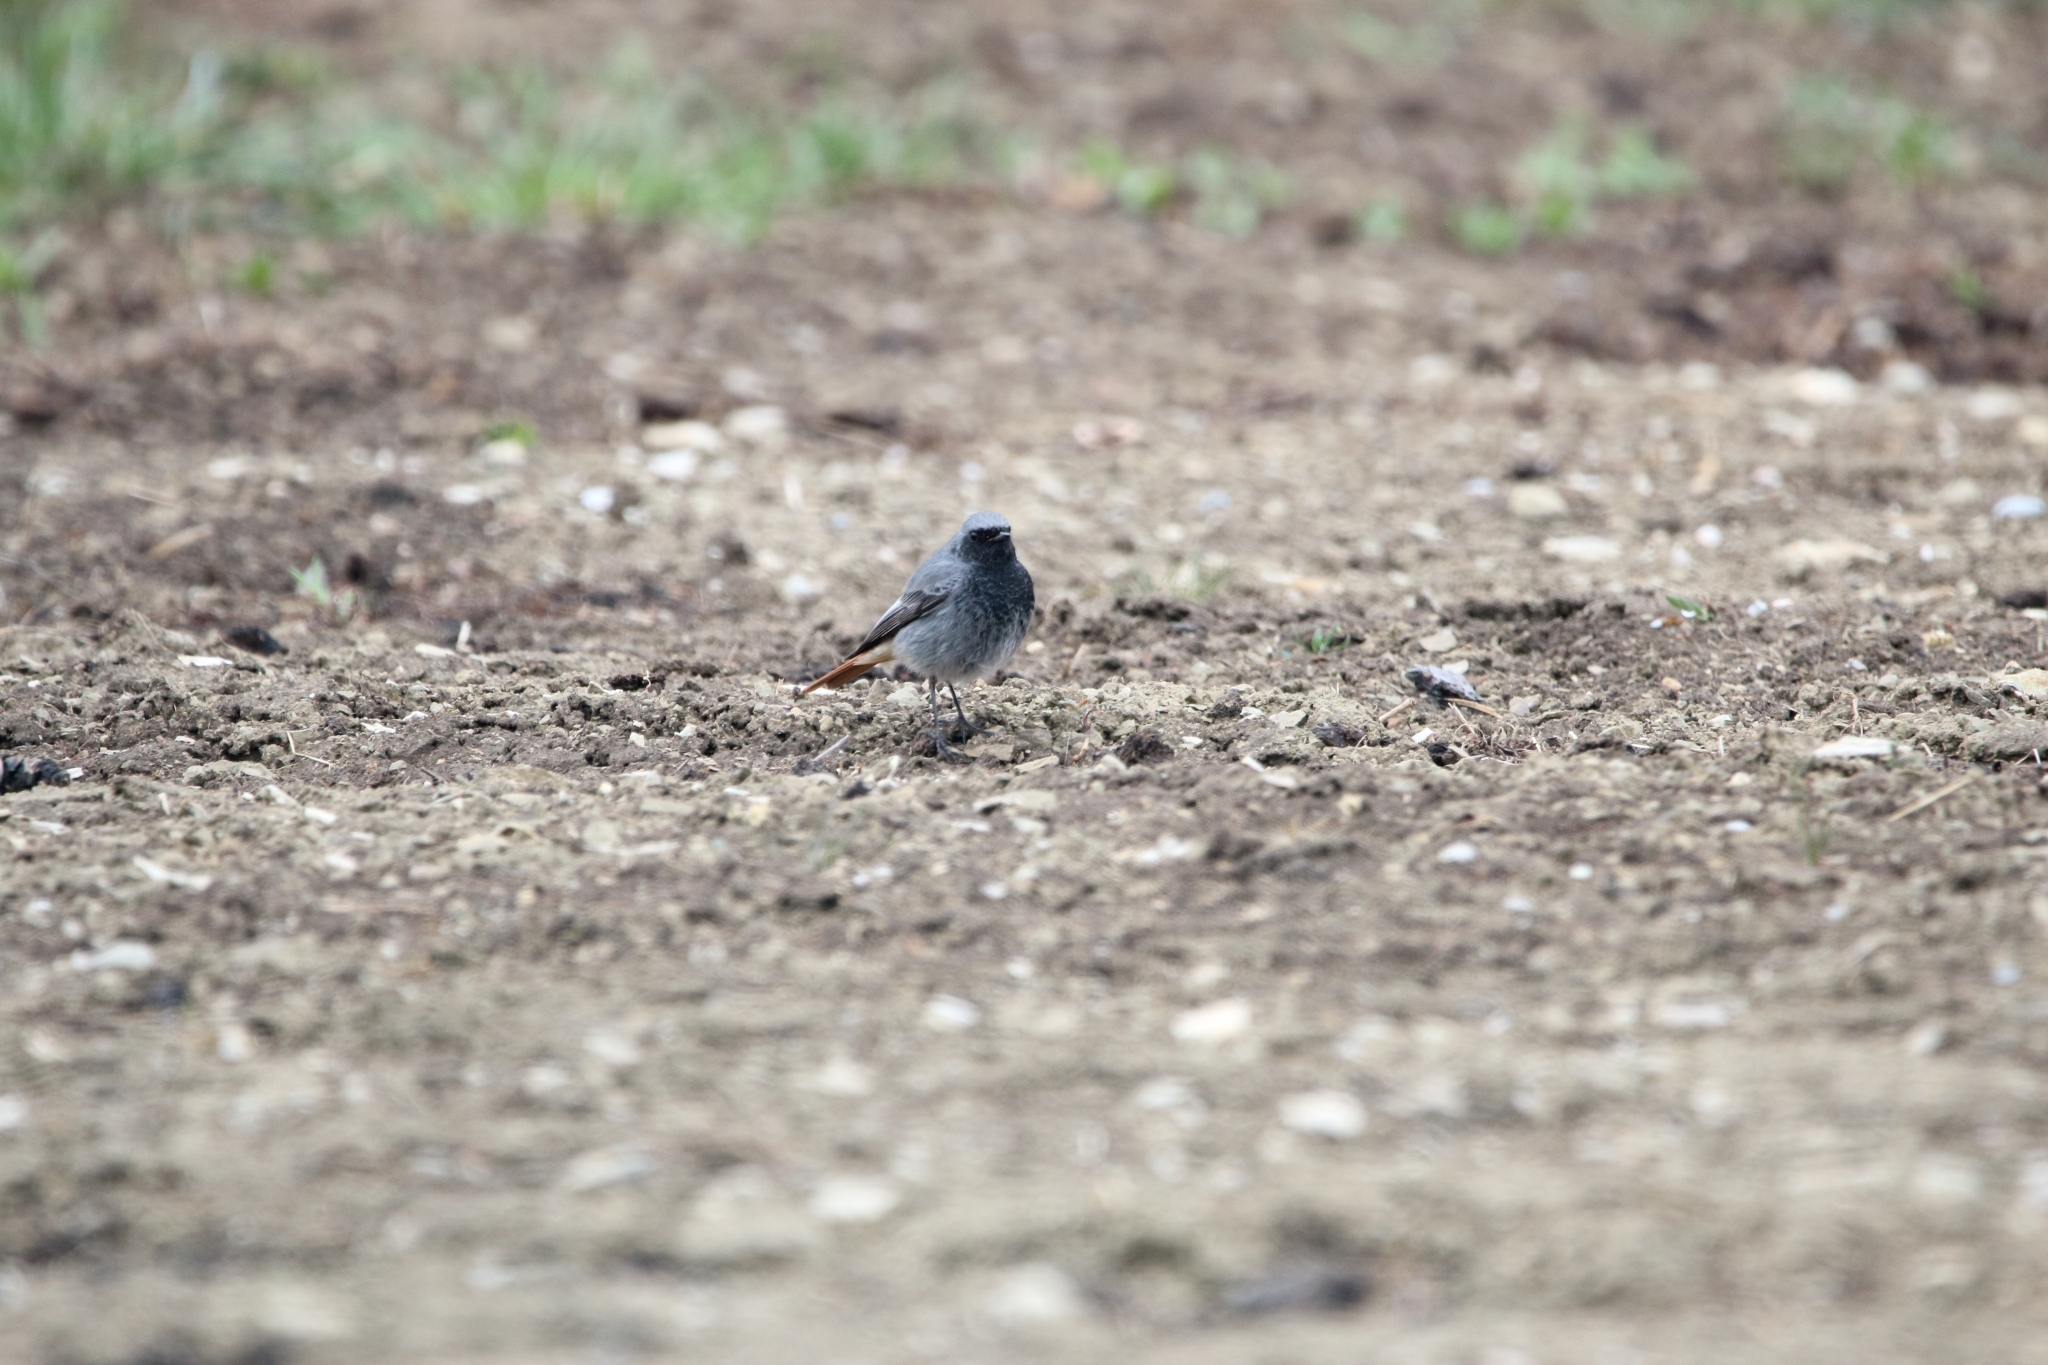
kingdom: Animalia
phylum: Chordata
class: Aves
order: Passeriformes
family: Muscicapidae
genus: Phoenicurus
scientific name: Phoenicurus ochruros
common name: Black redstart
